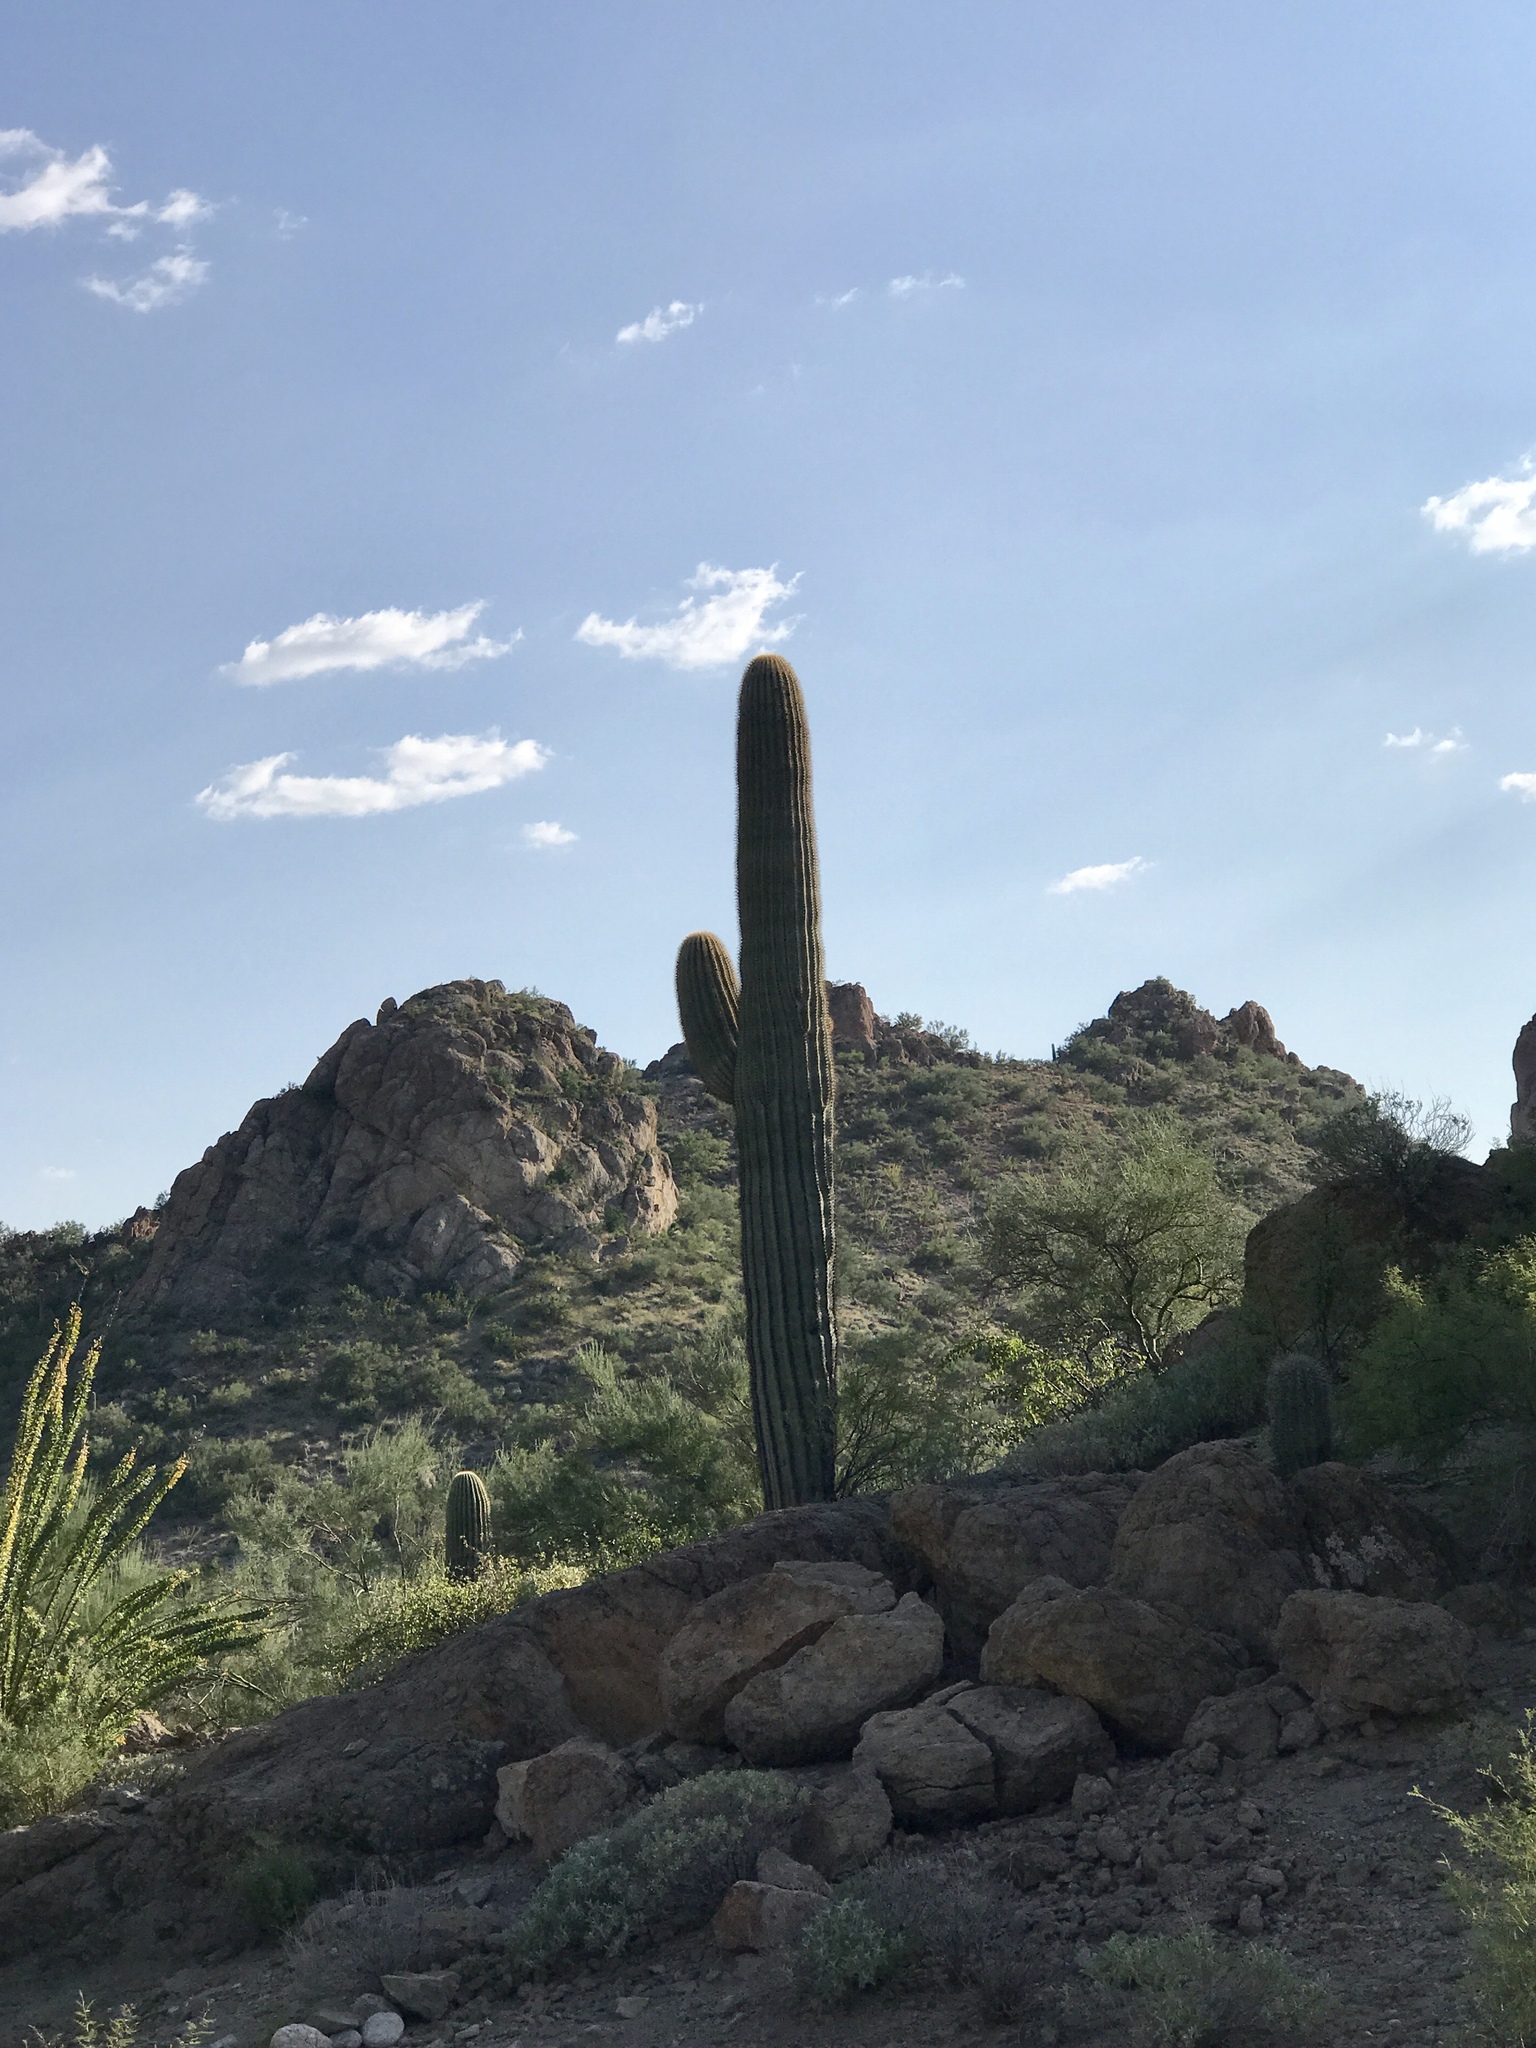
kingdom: Plantae
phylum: Tracheophyta
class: Magnoliopsida
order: Caryophyllales
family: Cactaceae
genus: Carnegiea
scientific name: Carnegiea gigantea
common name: Saguaro
